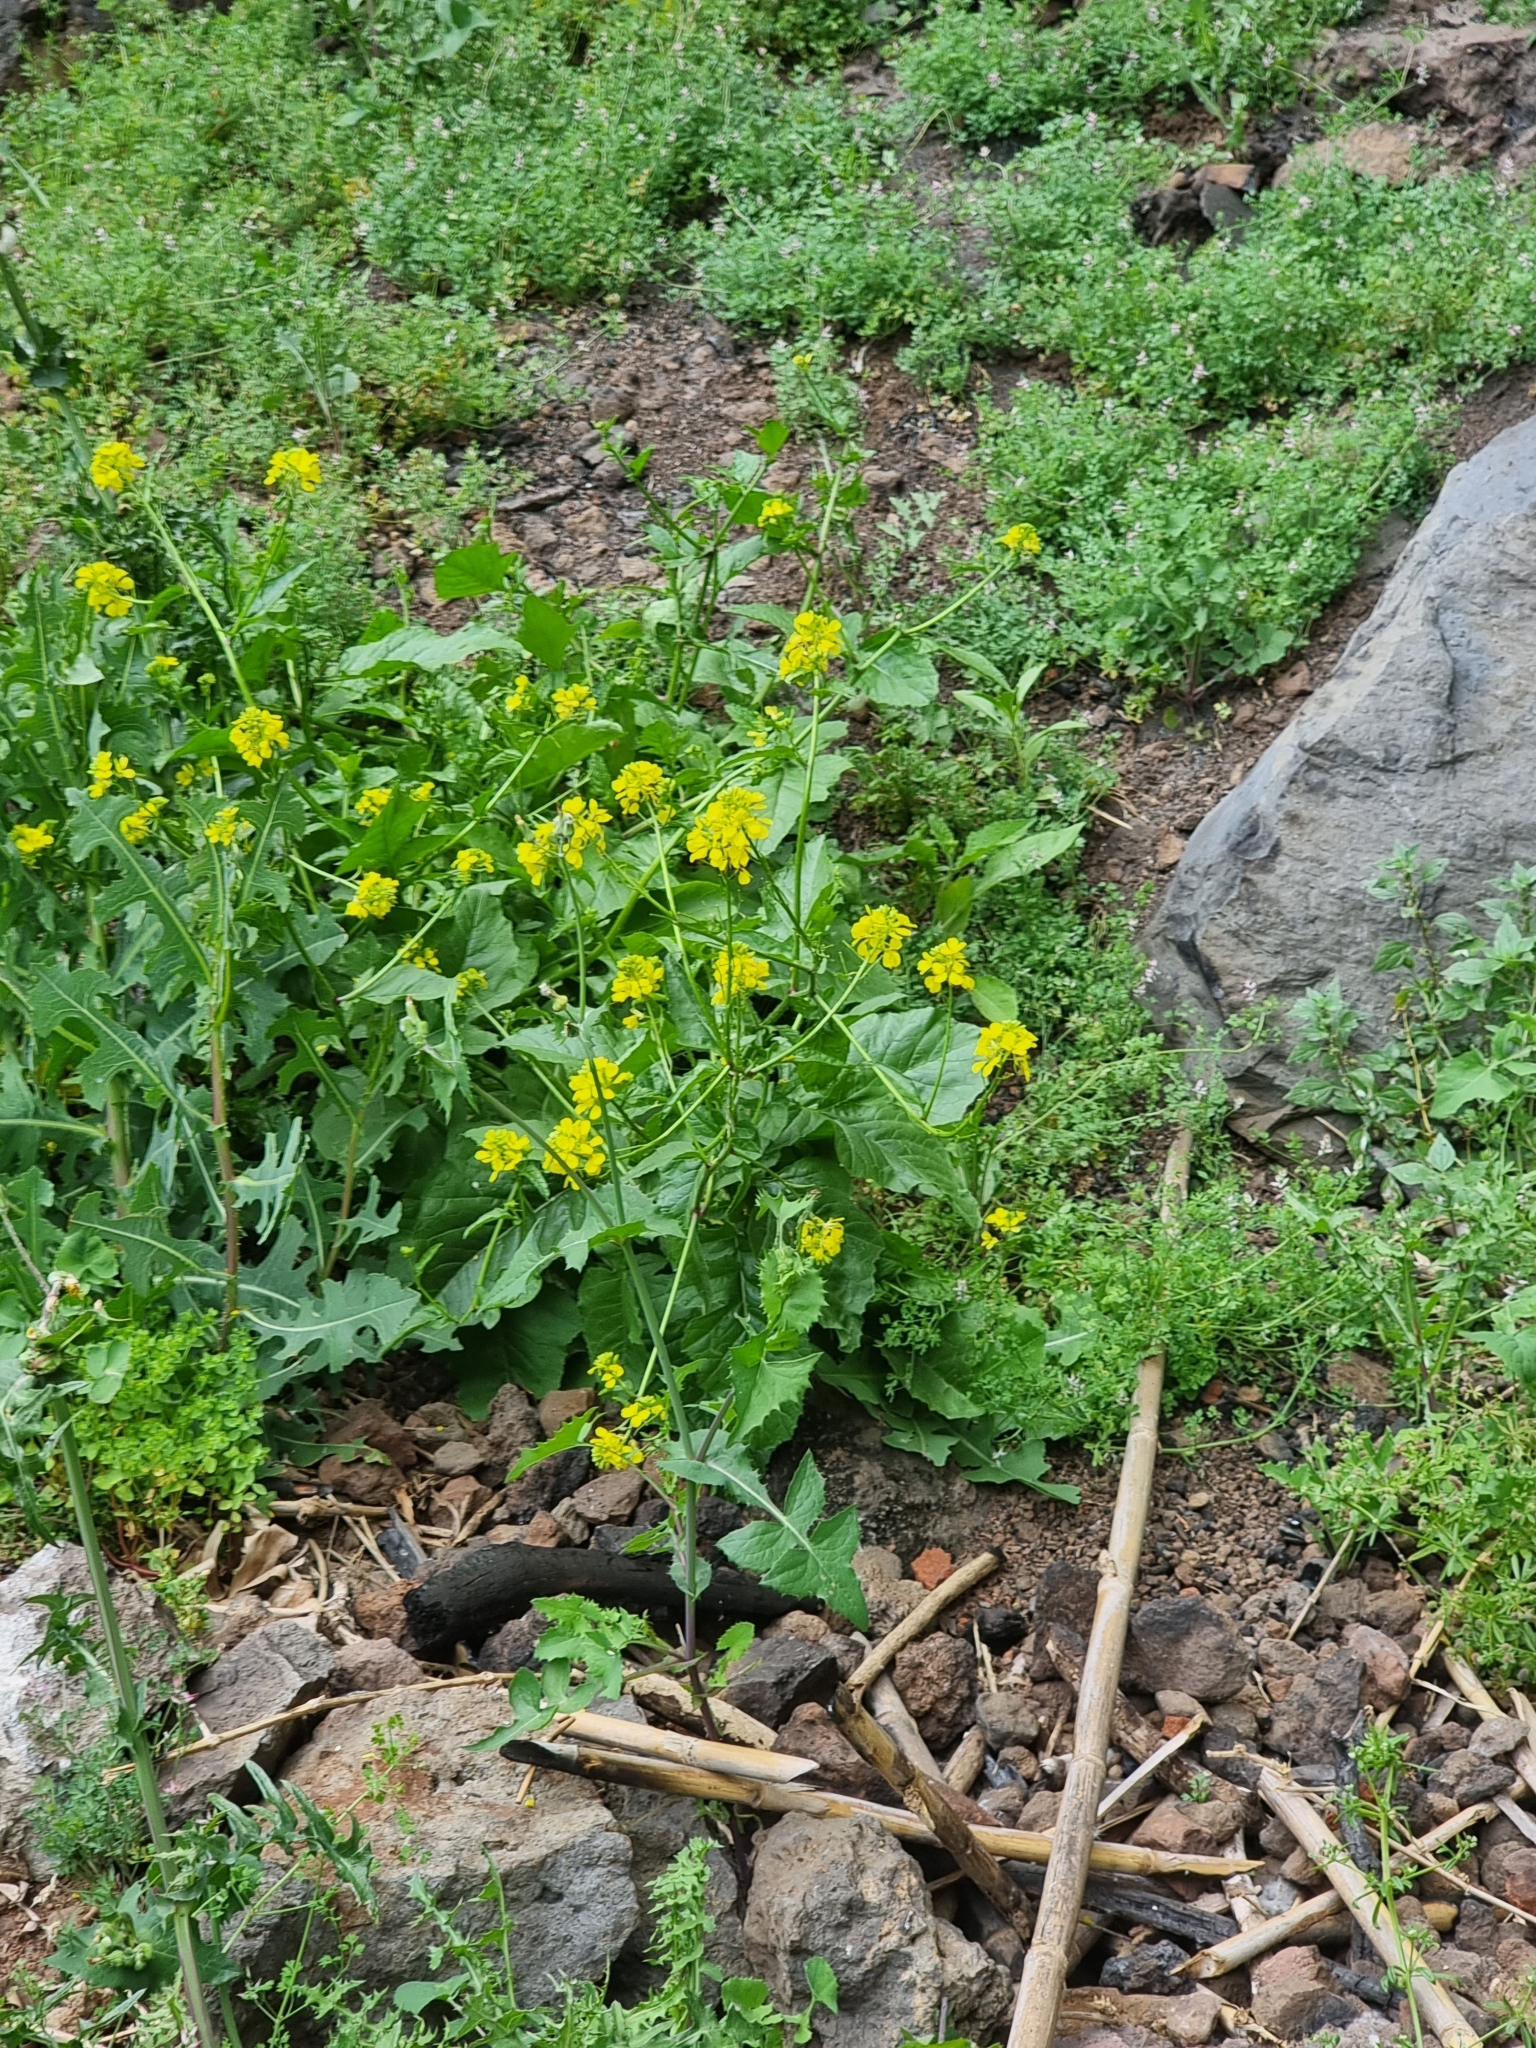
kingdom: Plantae
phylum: Tracheophyta
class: Magnoliopsida
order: Brassicales
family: Brassicaceae
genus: Rapistrum
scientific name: Rapistrum rugosum
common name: Annual bastardcabbage
